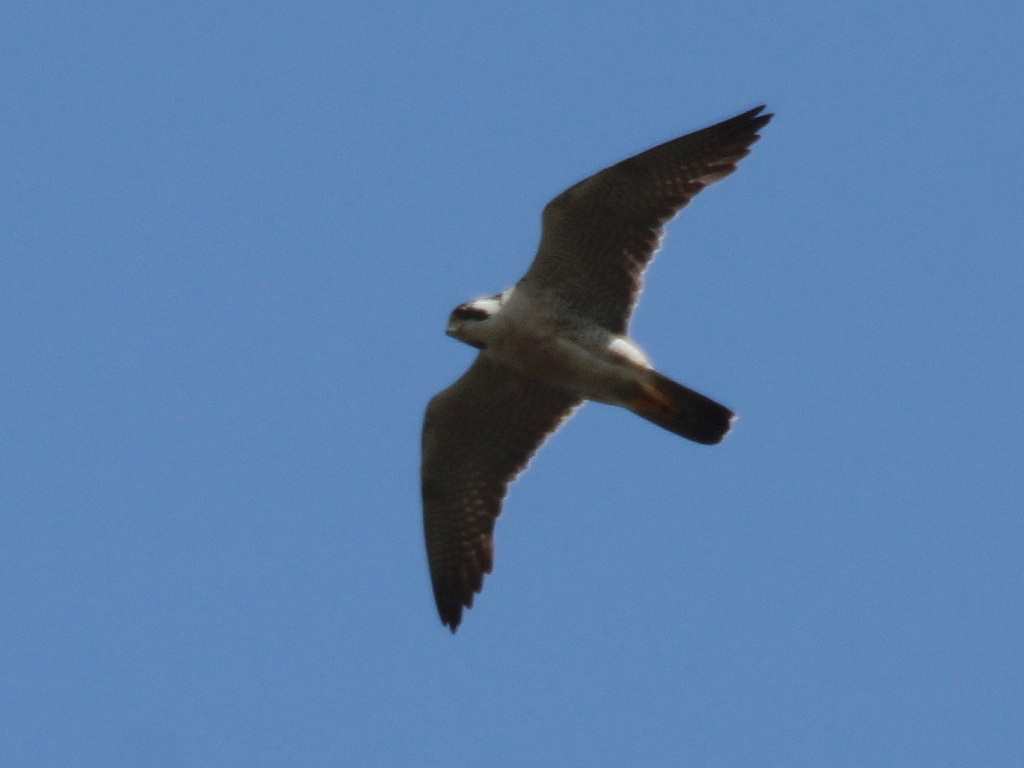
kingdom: Animalia
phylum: Chordata
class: Aves
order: Falconiformes
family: Falconidae
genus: Falco
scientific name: Falco peregrinus
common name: Peregrine falcon
